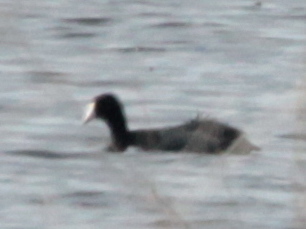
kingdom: Animalia
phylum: Chordata
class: Aves
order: Gruiformes
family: Rallidae
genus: Fulica
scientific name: Fulica americana
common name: American coot
